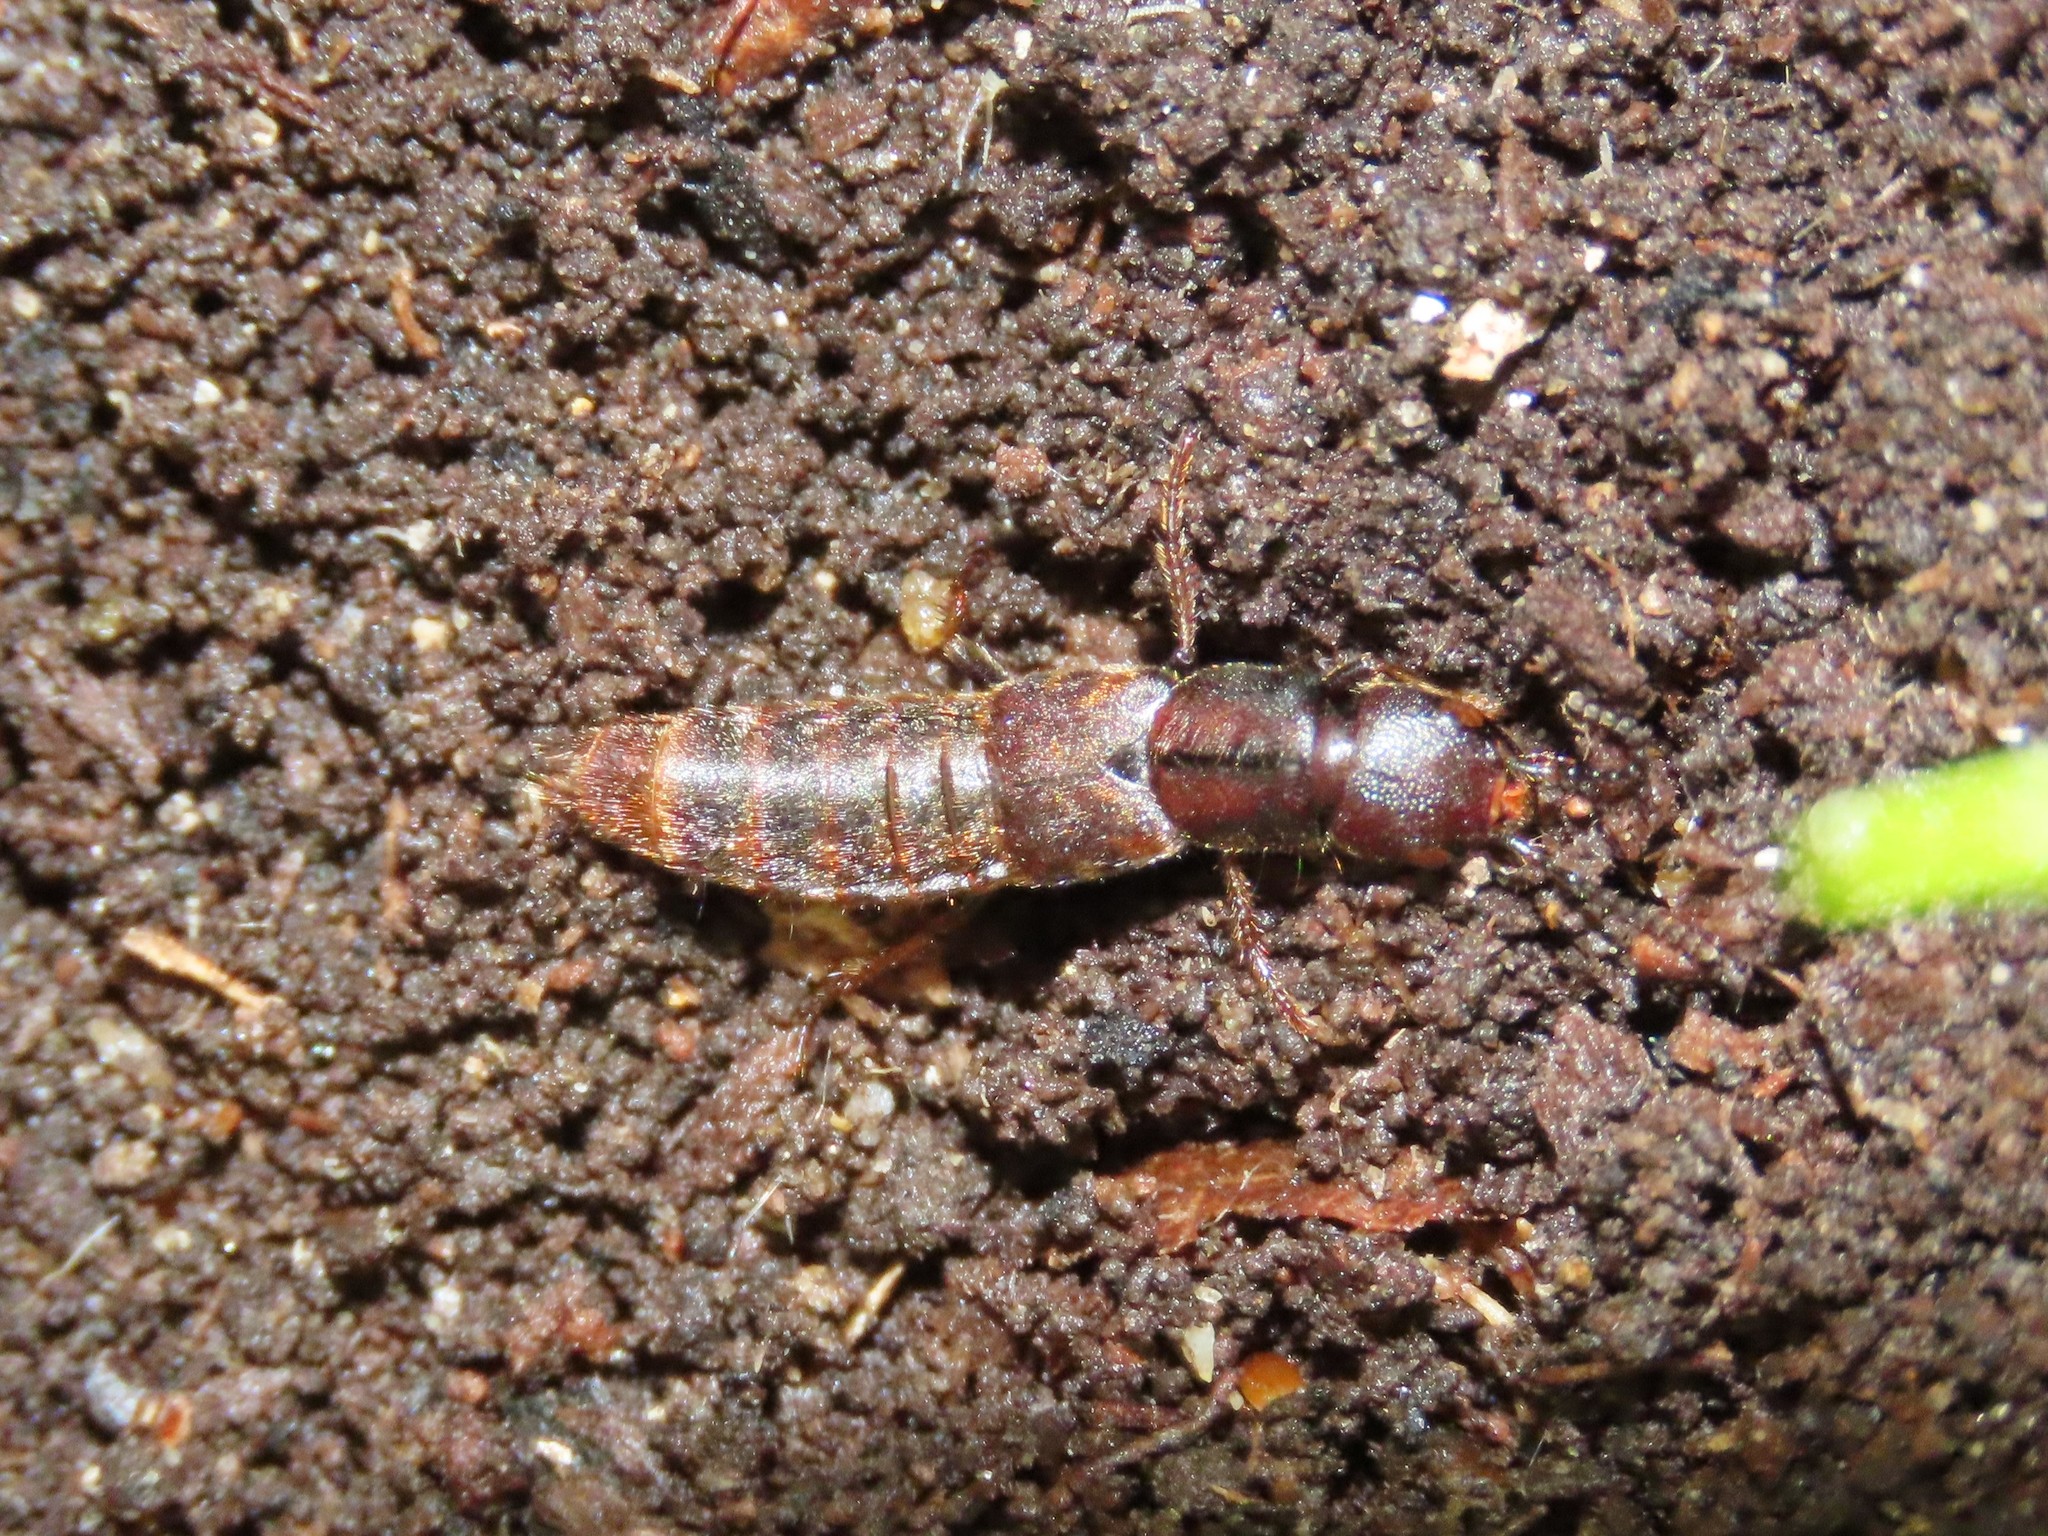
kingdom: Animalia
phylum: Arthropoda
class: Insecta
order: Coleoptera
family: Staphylinidae
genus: Platydracus
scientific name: Platydracus zonatus
